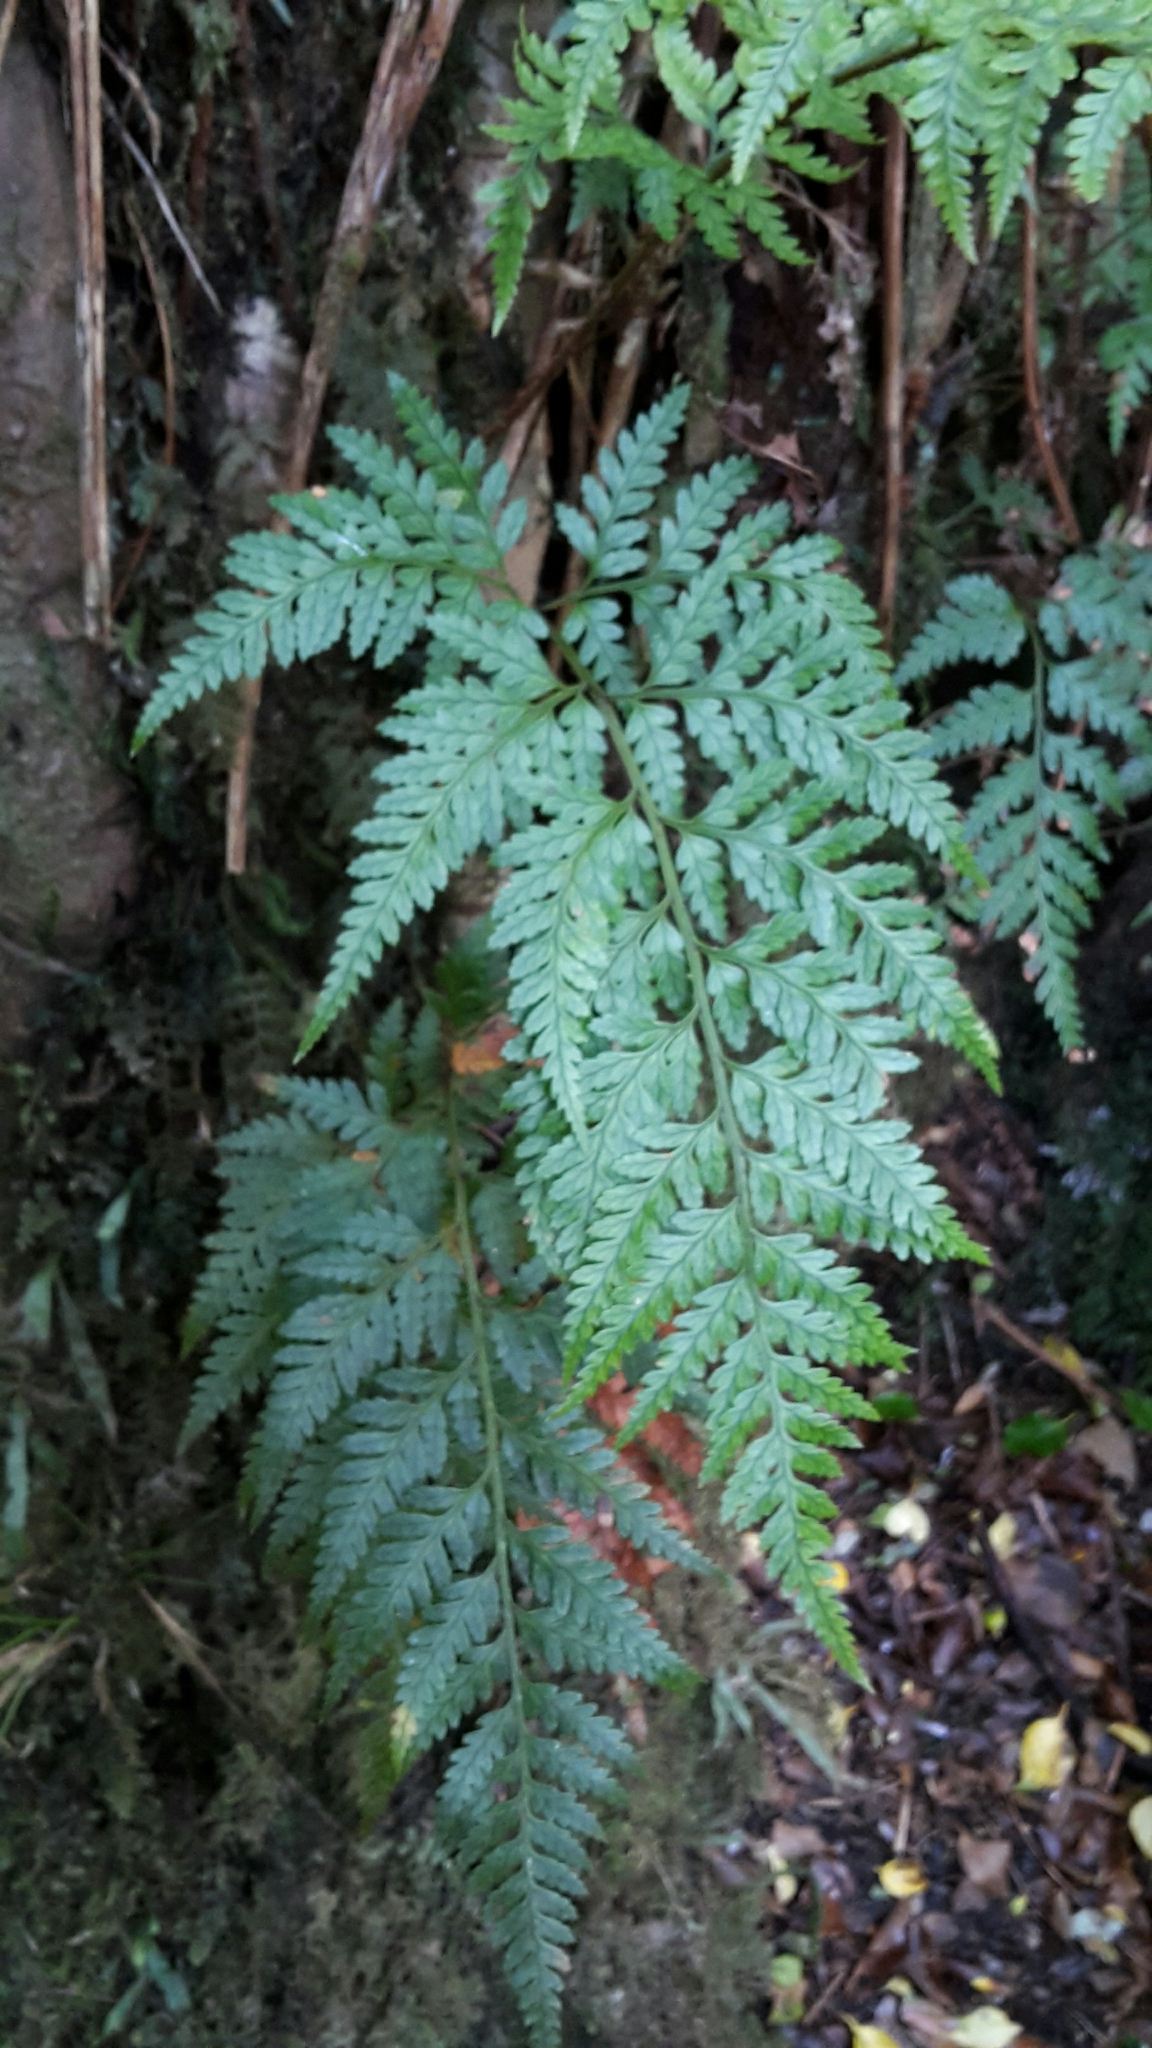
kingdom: Plantae
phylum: Tracheophyta
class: Polypodiopsida
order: Polypodiales
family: Dryopteridaceae
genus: Rumohra
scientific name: Rumohra adiantiformis
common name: Leather fern
